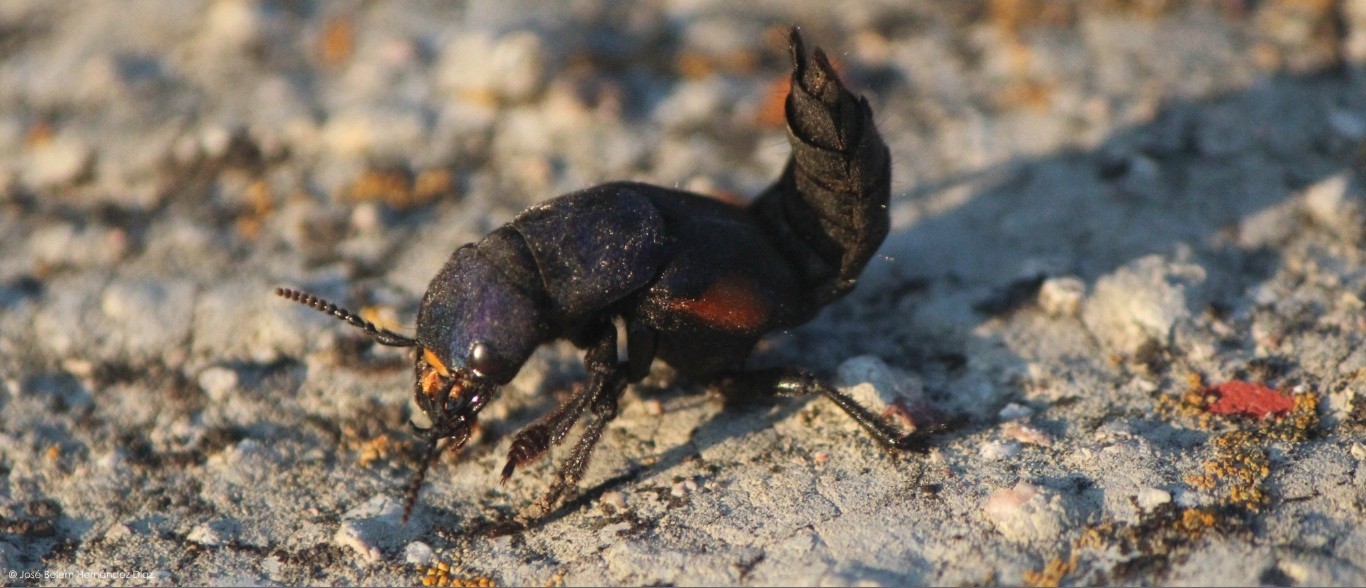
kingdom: Animalia
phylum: Arthropoda
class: Insecta
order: Coleoptera
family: Staphylinidae
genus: Platydracus
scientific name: Platydracus fulvomaculatus
